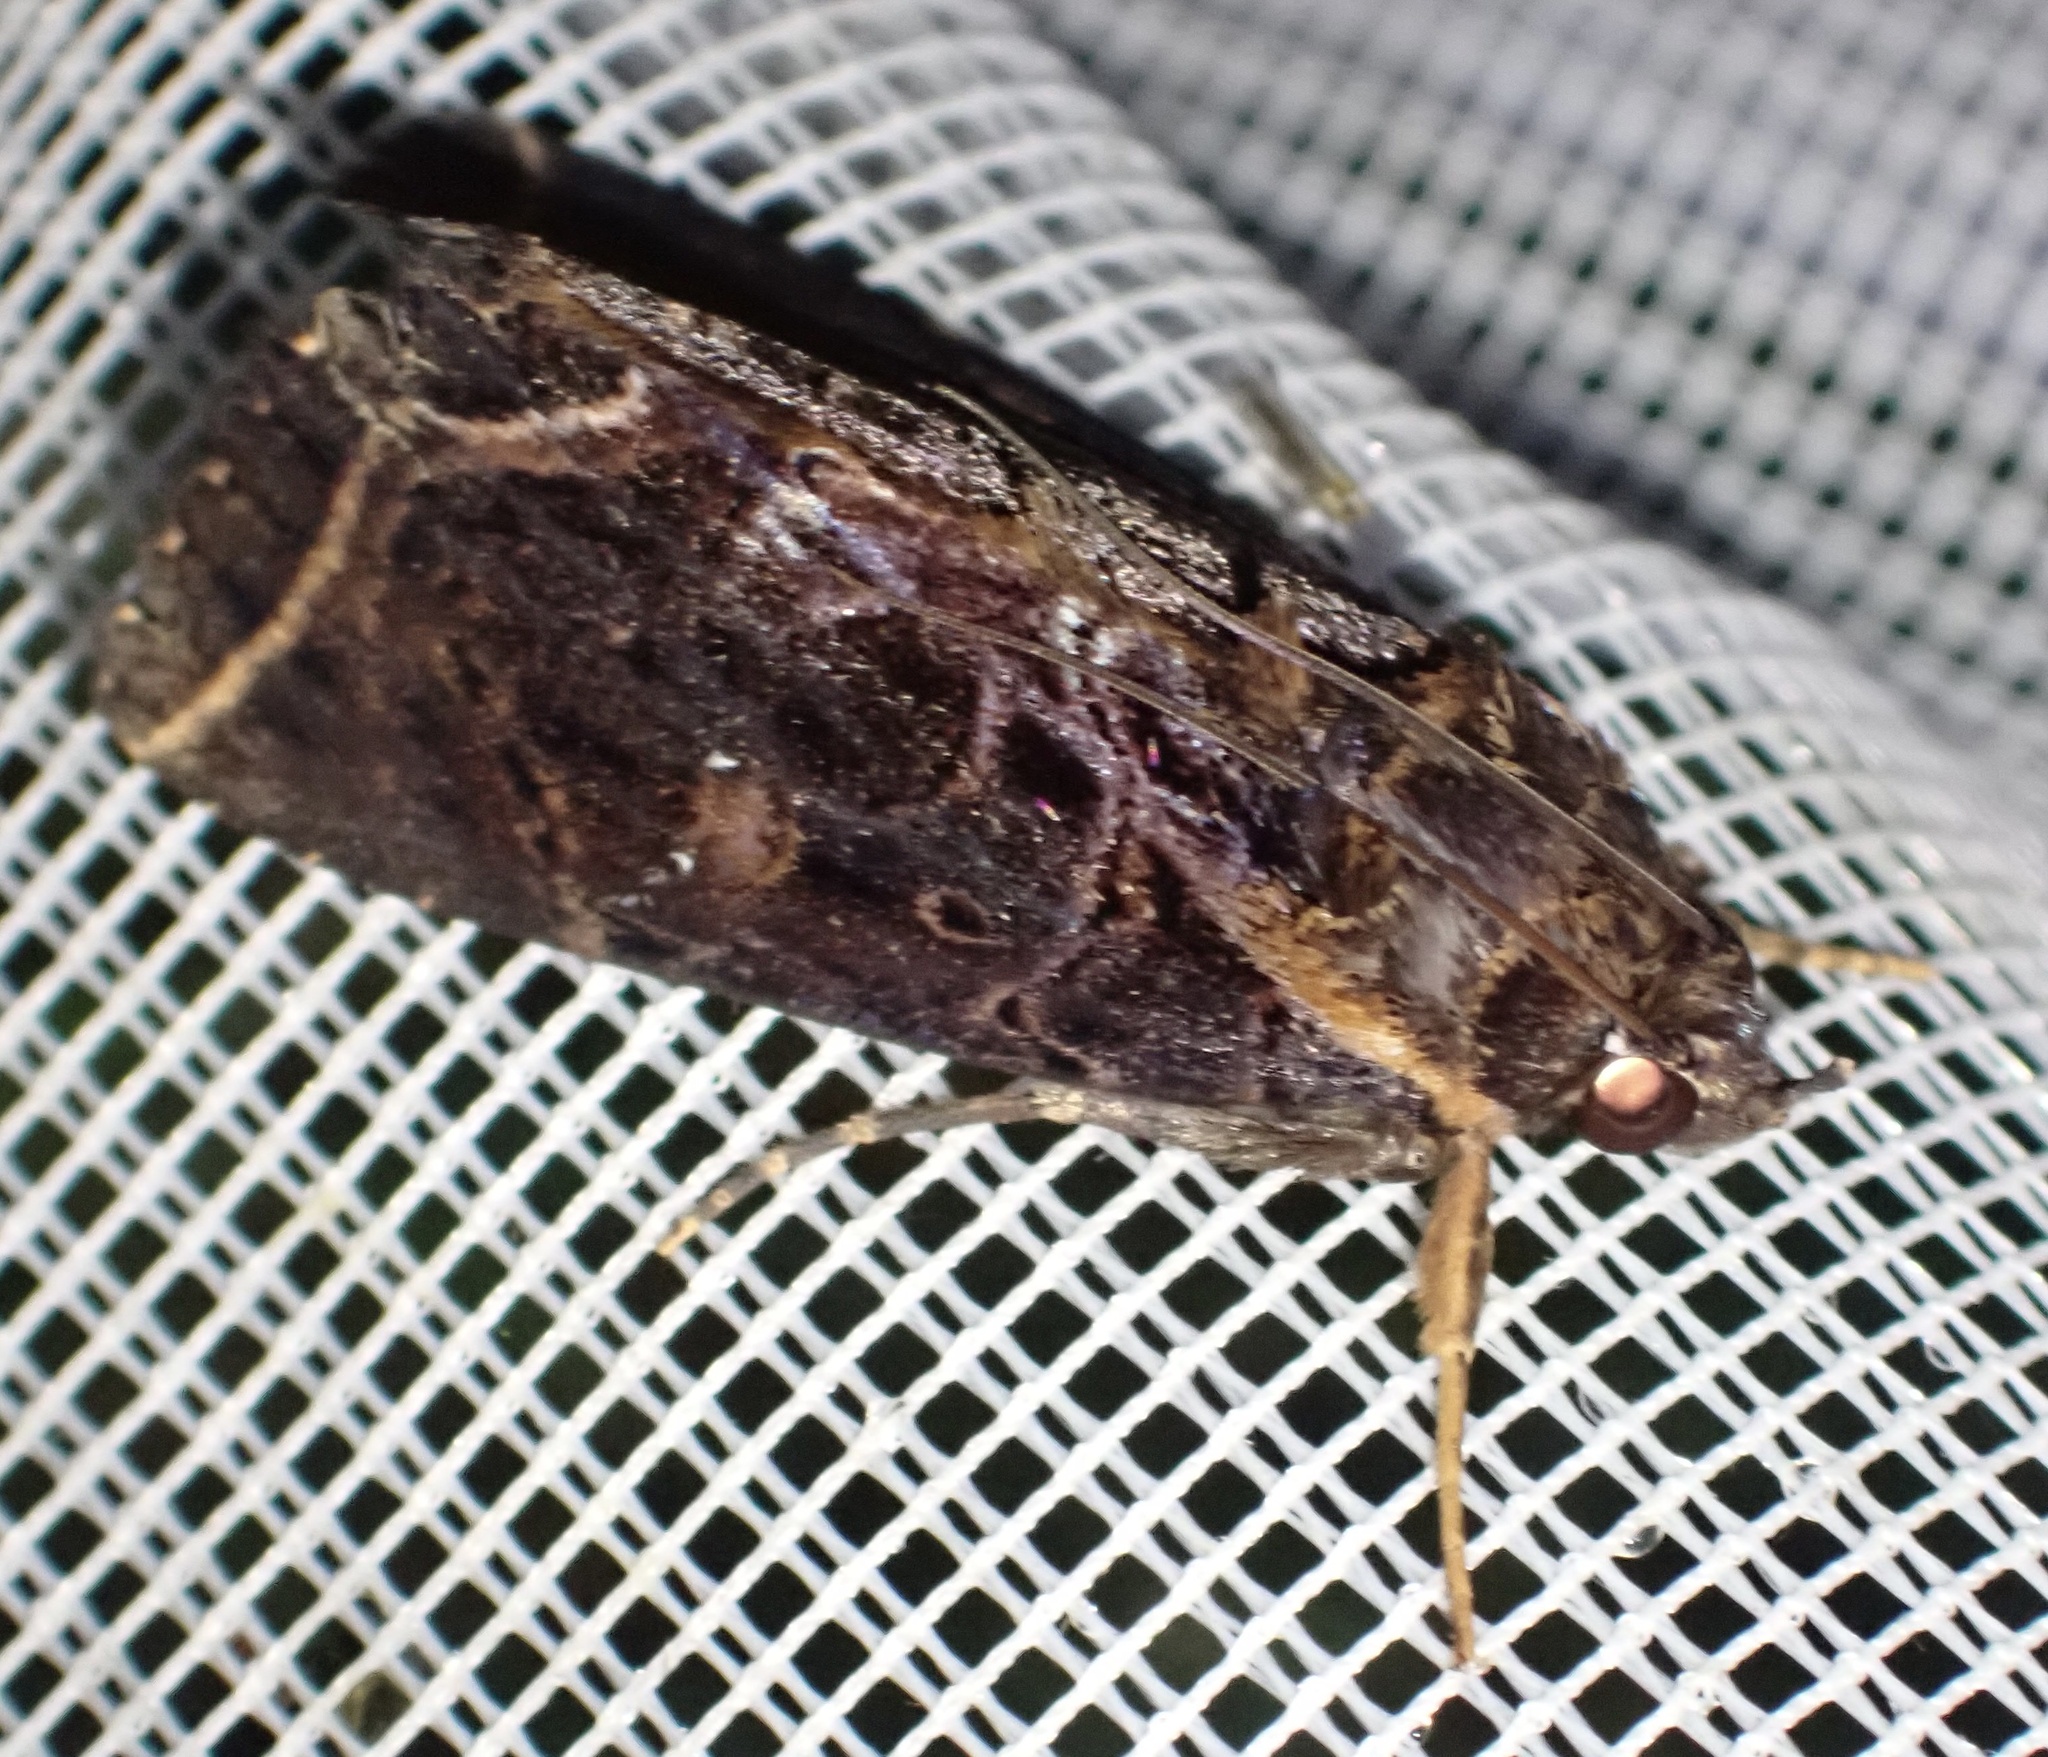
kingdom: Animalia
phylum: Arthropoda
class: Insecta
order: Lepidoptera
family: Erebidae
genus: Anophiodes
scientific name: Anophiodes meeki
